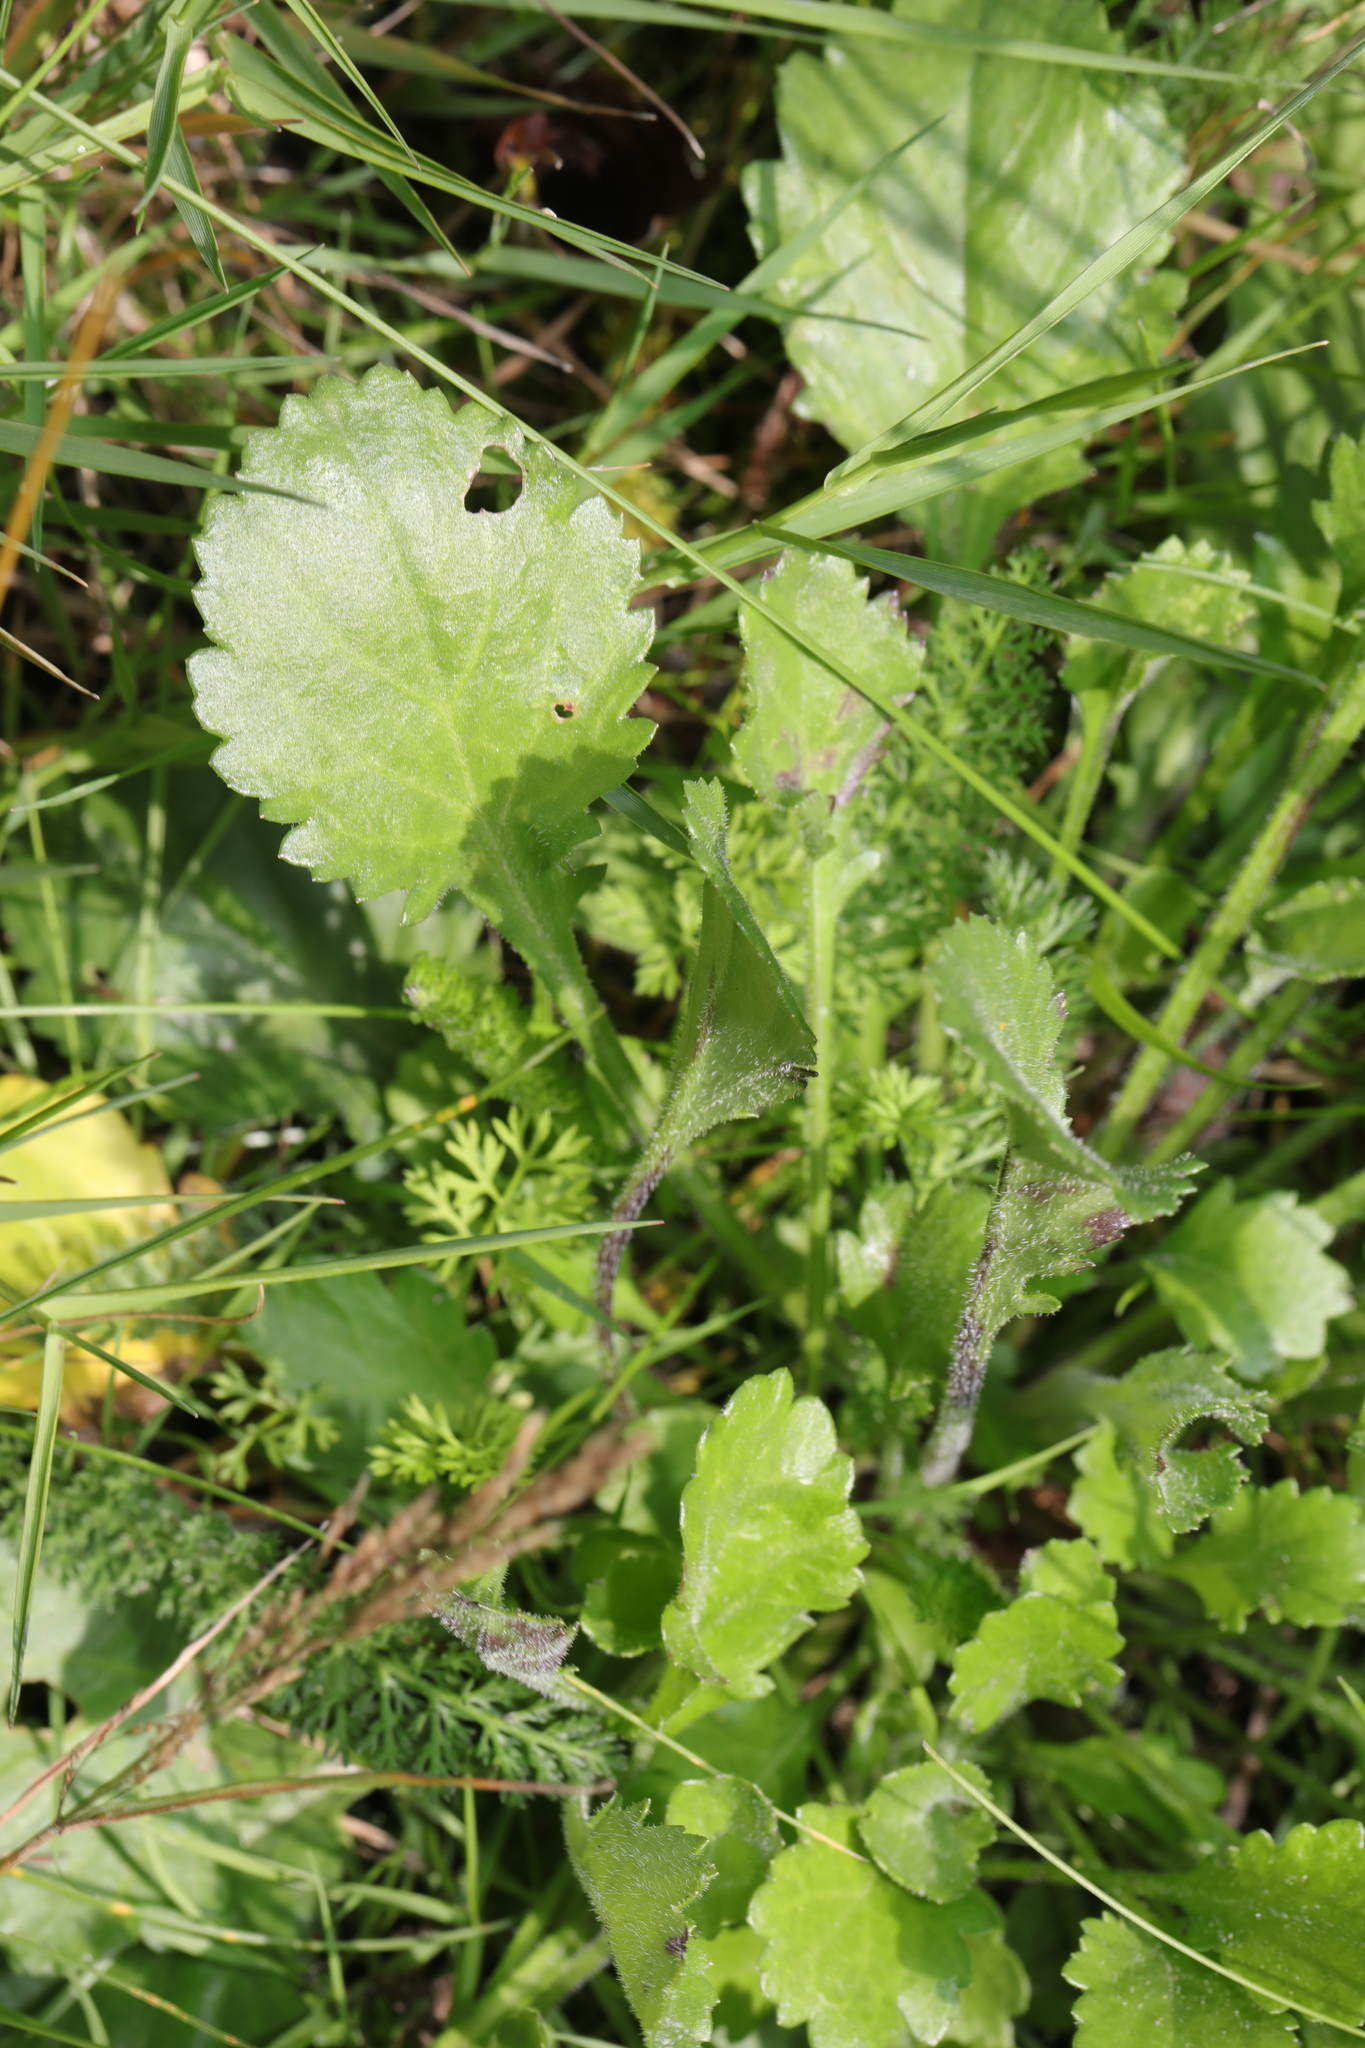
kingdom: Plantae
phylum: Tracheophyta
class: Magnoliopsida
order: Asterales
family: Asteraceae
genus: Leucanthemum
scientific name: Leucanthemum vulgare
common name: Oxeye daisy
